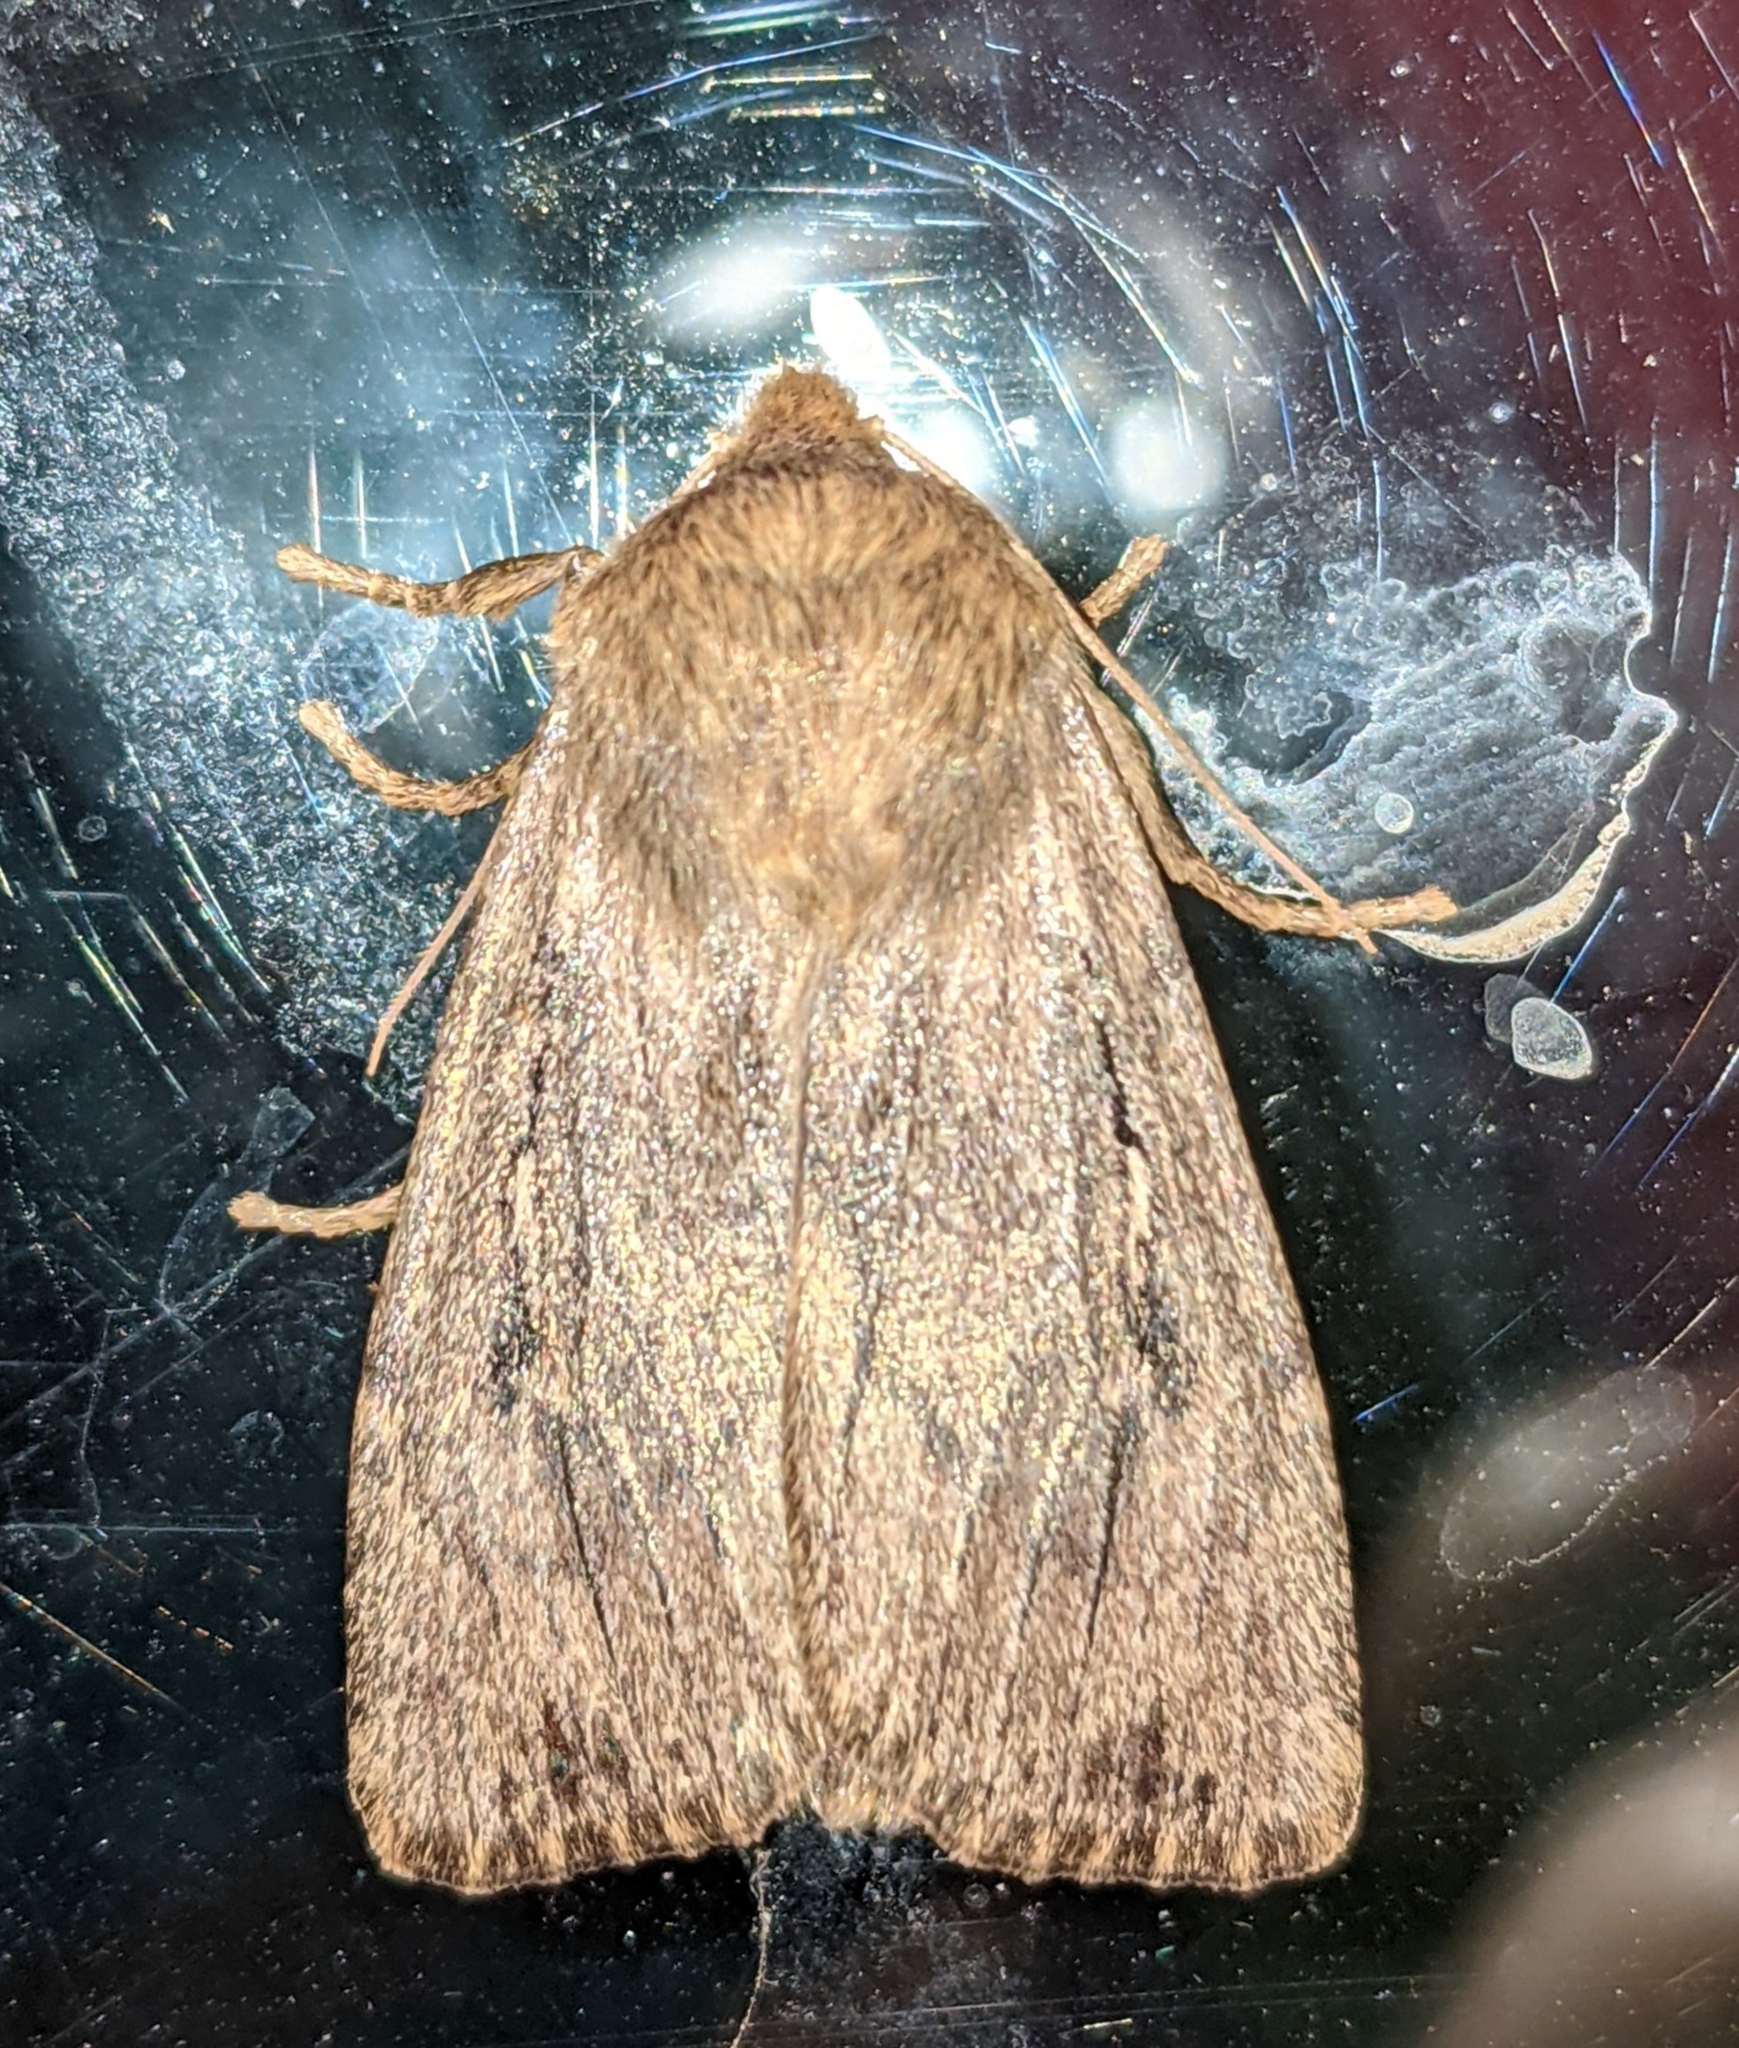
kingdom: Animalia
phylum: Arthropoda
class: Insecta
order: Lepidoptera
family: Noctuidae
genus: Ufeus
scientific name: Ufeus satyricus
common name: Brown satyr moth
